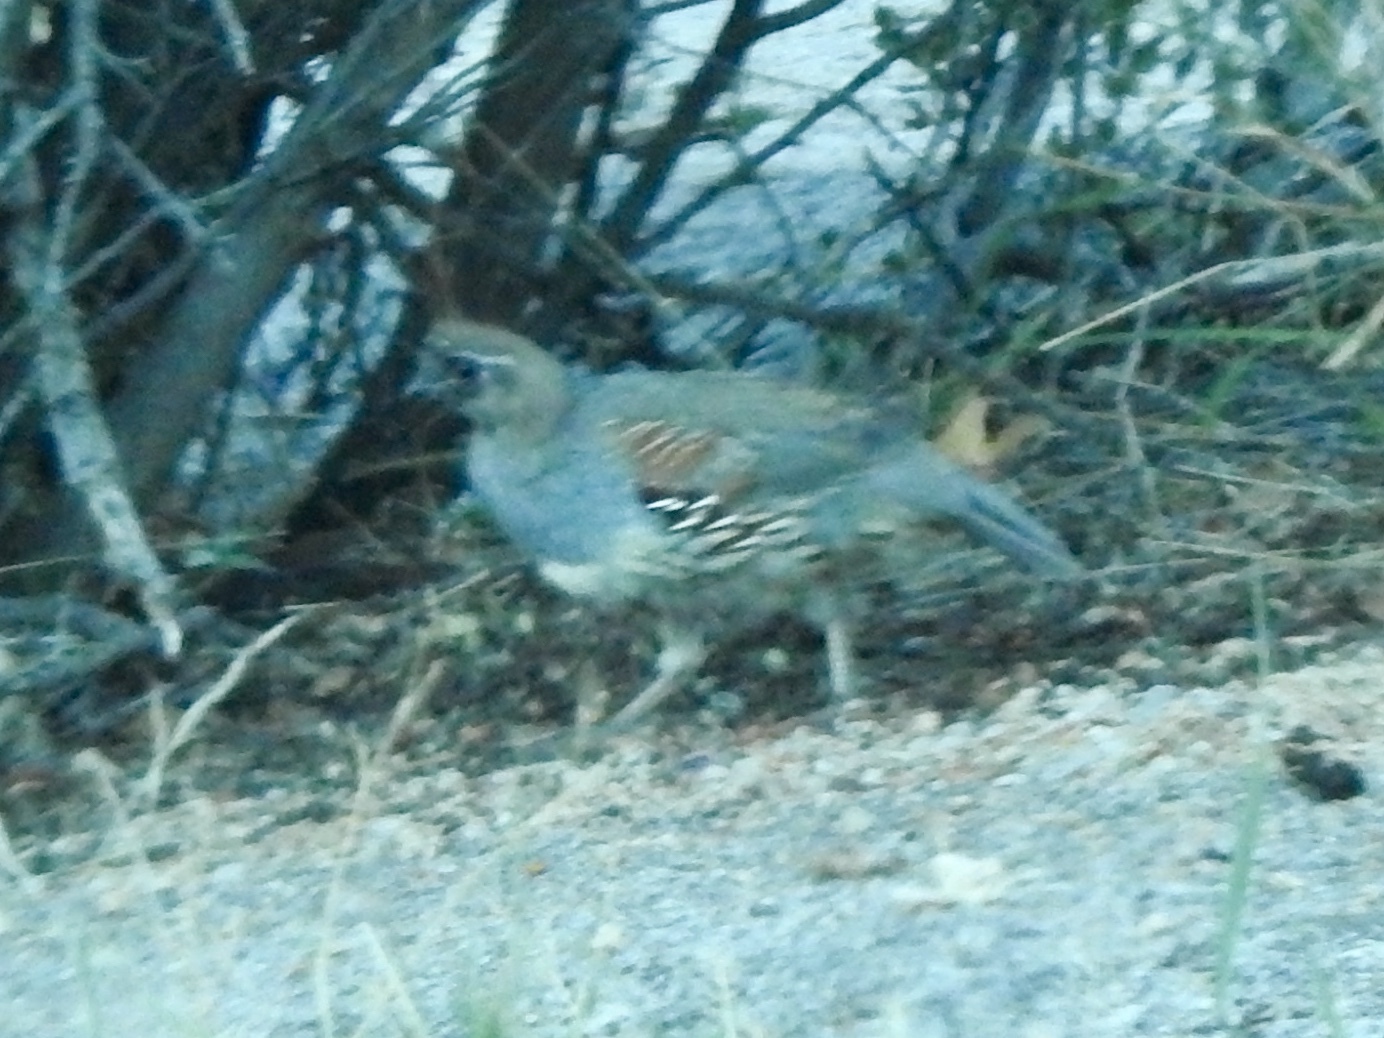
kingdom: Animalia
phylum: Chordata
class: Aves
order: Galliformes
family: Odontophoridae
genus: Callipepla
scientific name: Callipepla gambelii
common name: Gambel's quail
